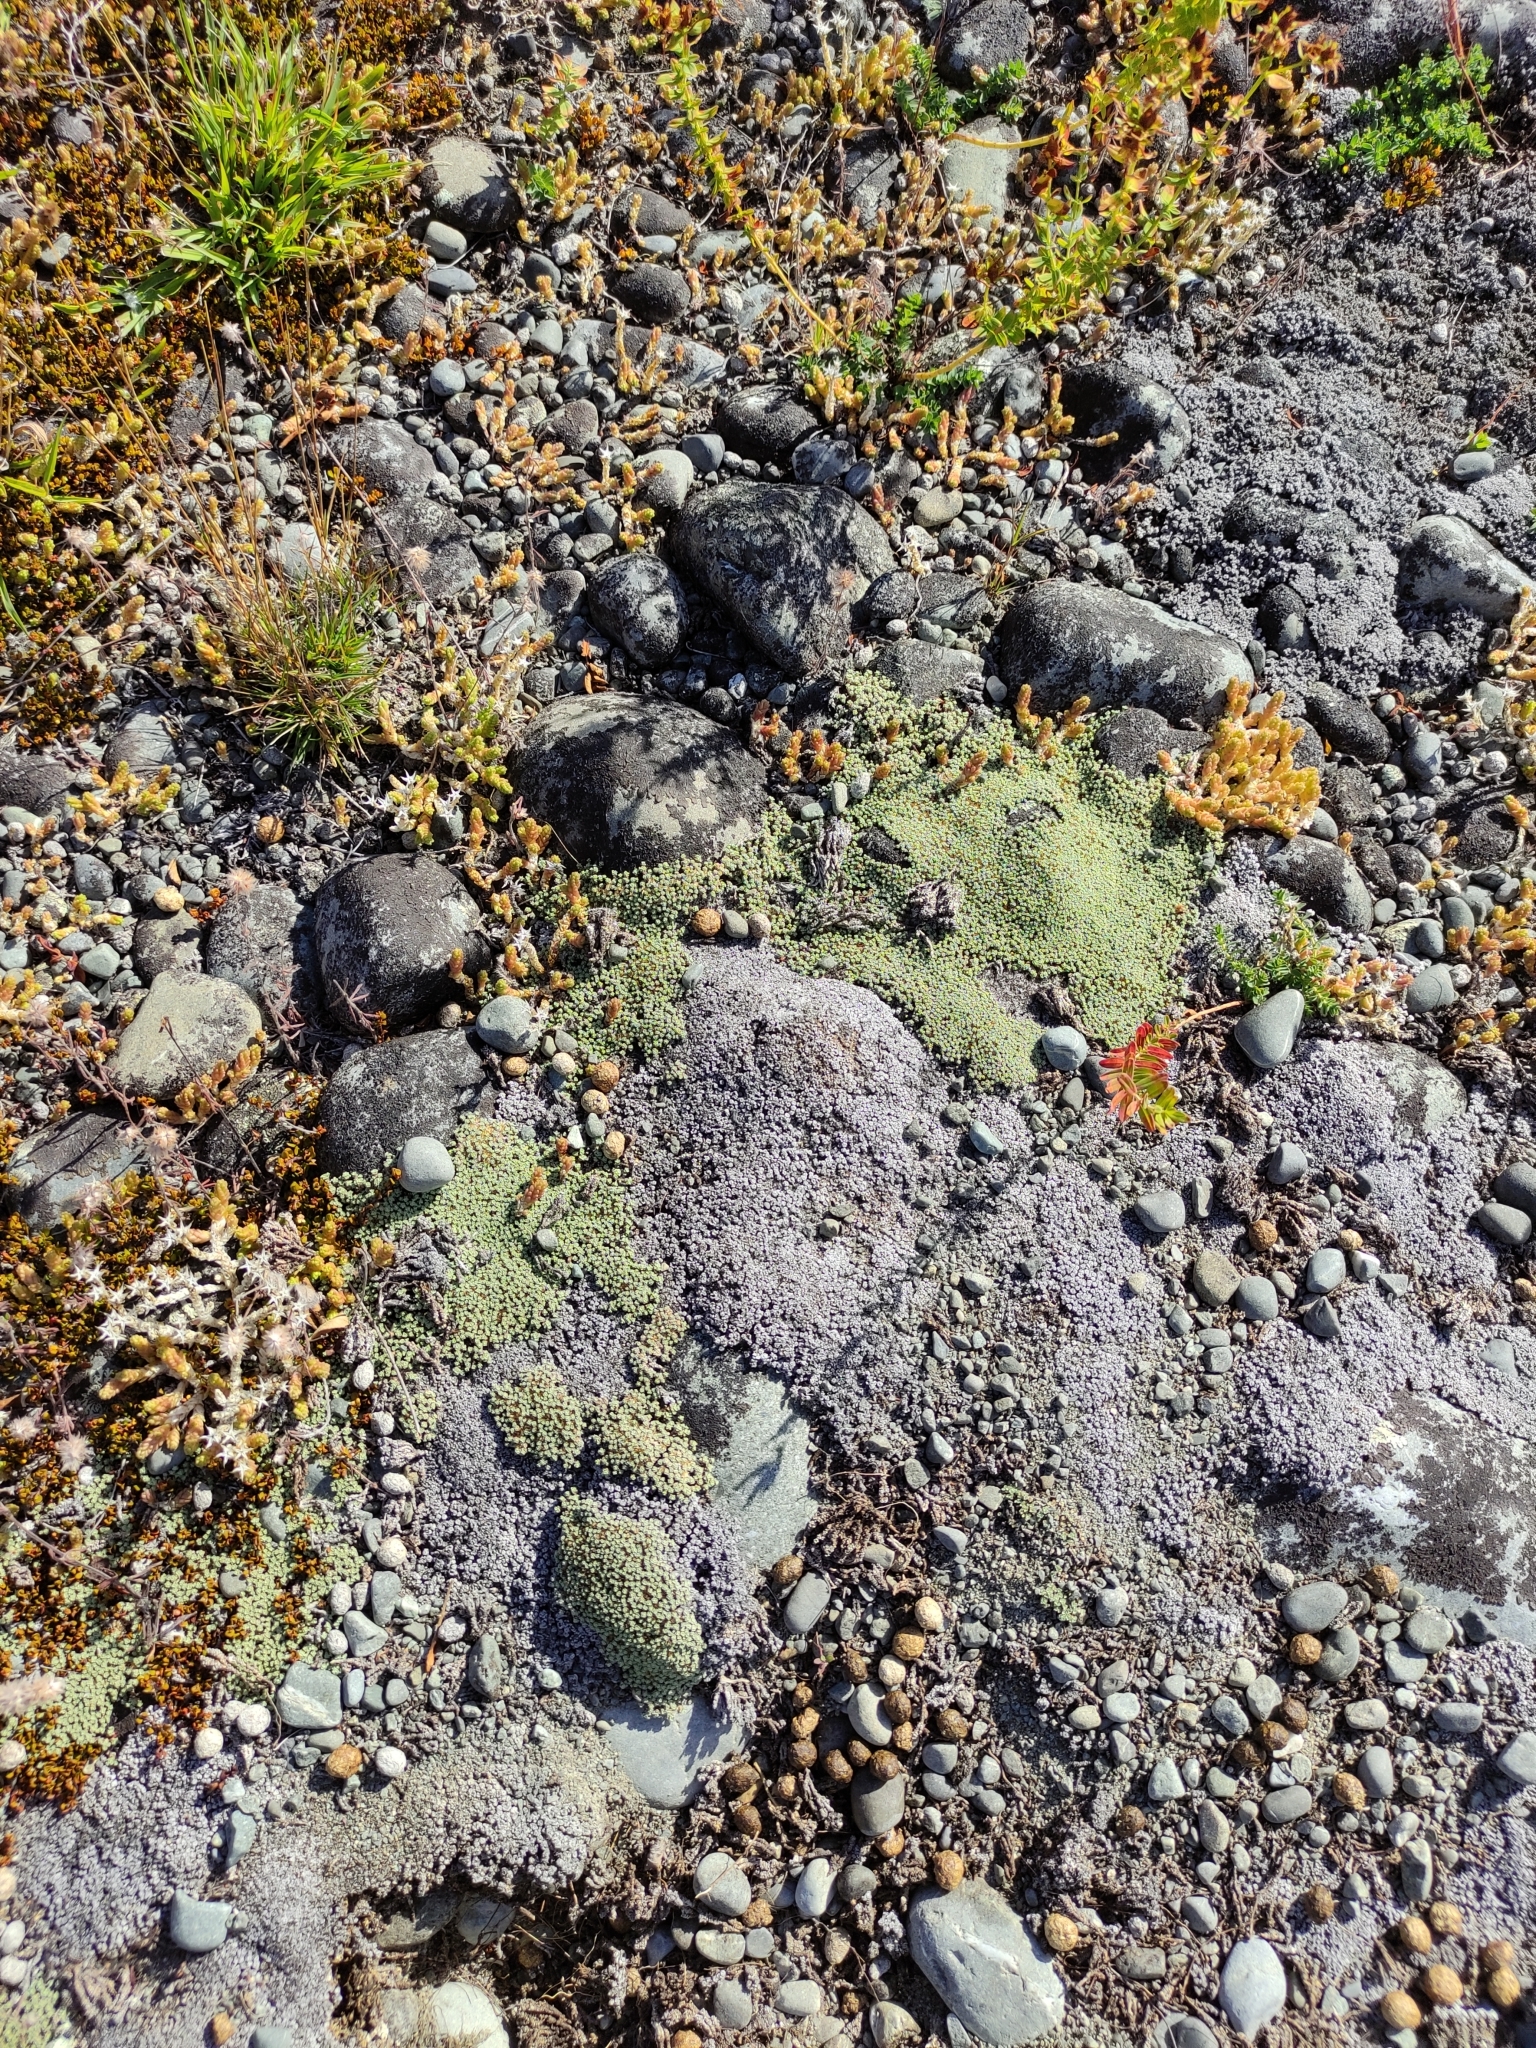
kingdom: Plantae
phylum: Tracheophyta
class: Magnoliopsida
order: Asterales
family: Asteraceae
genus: Raoulia
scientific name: Raoulia australis
